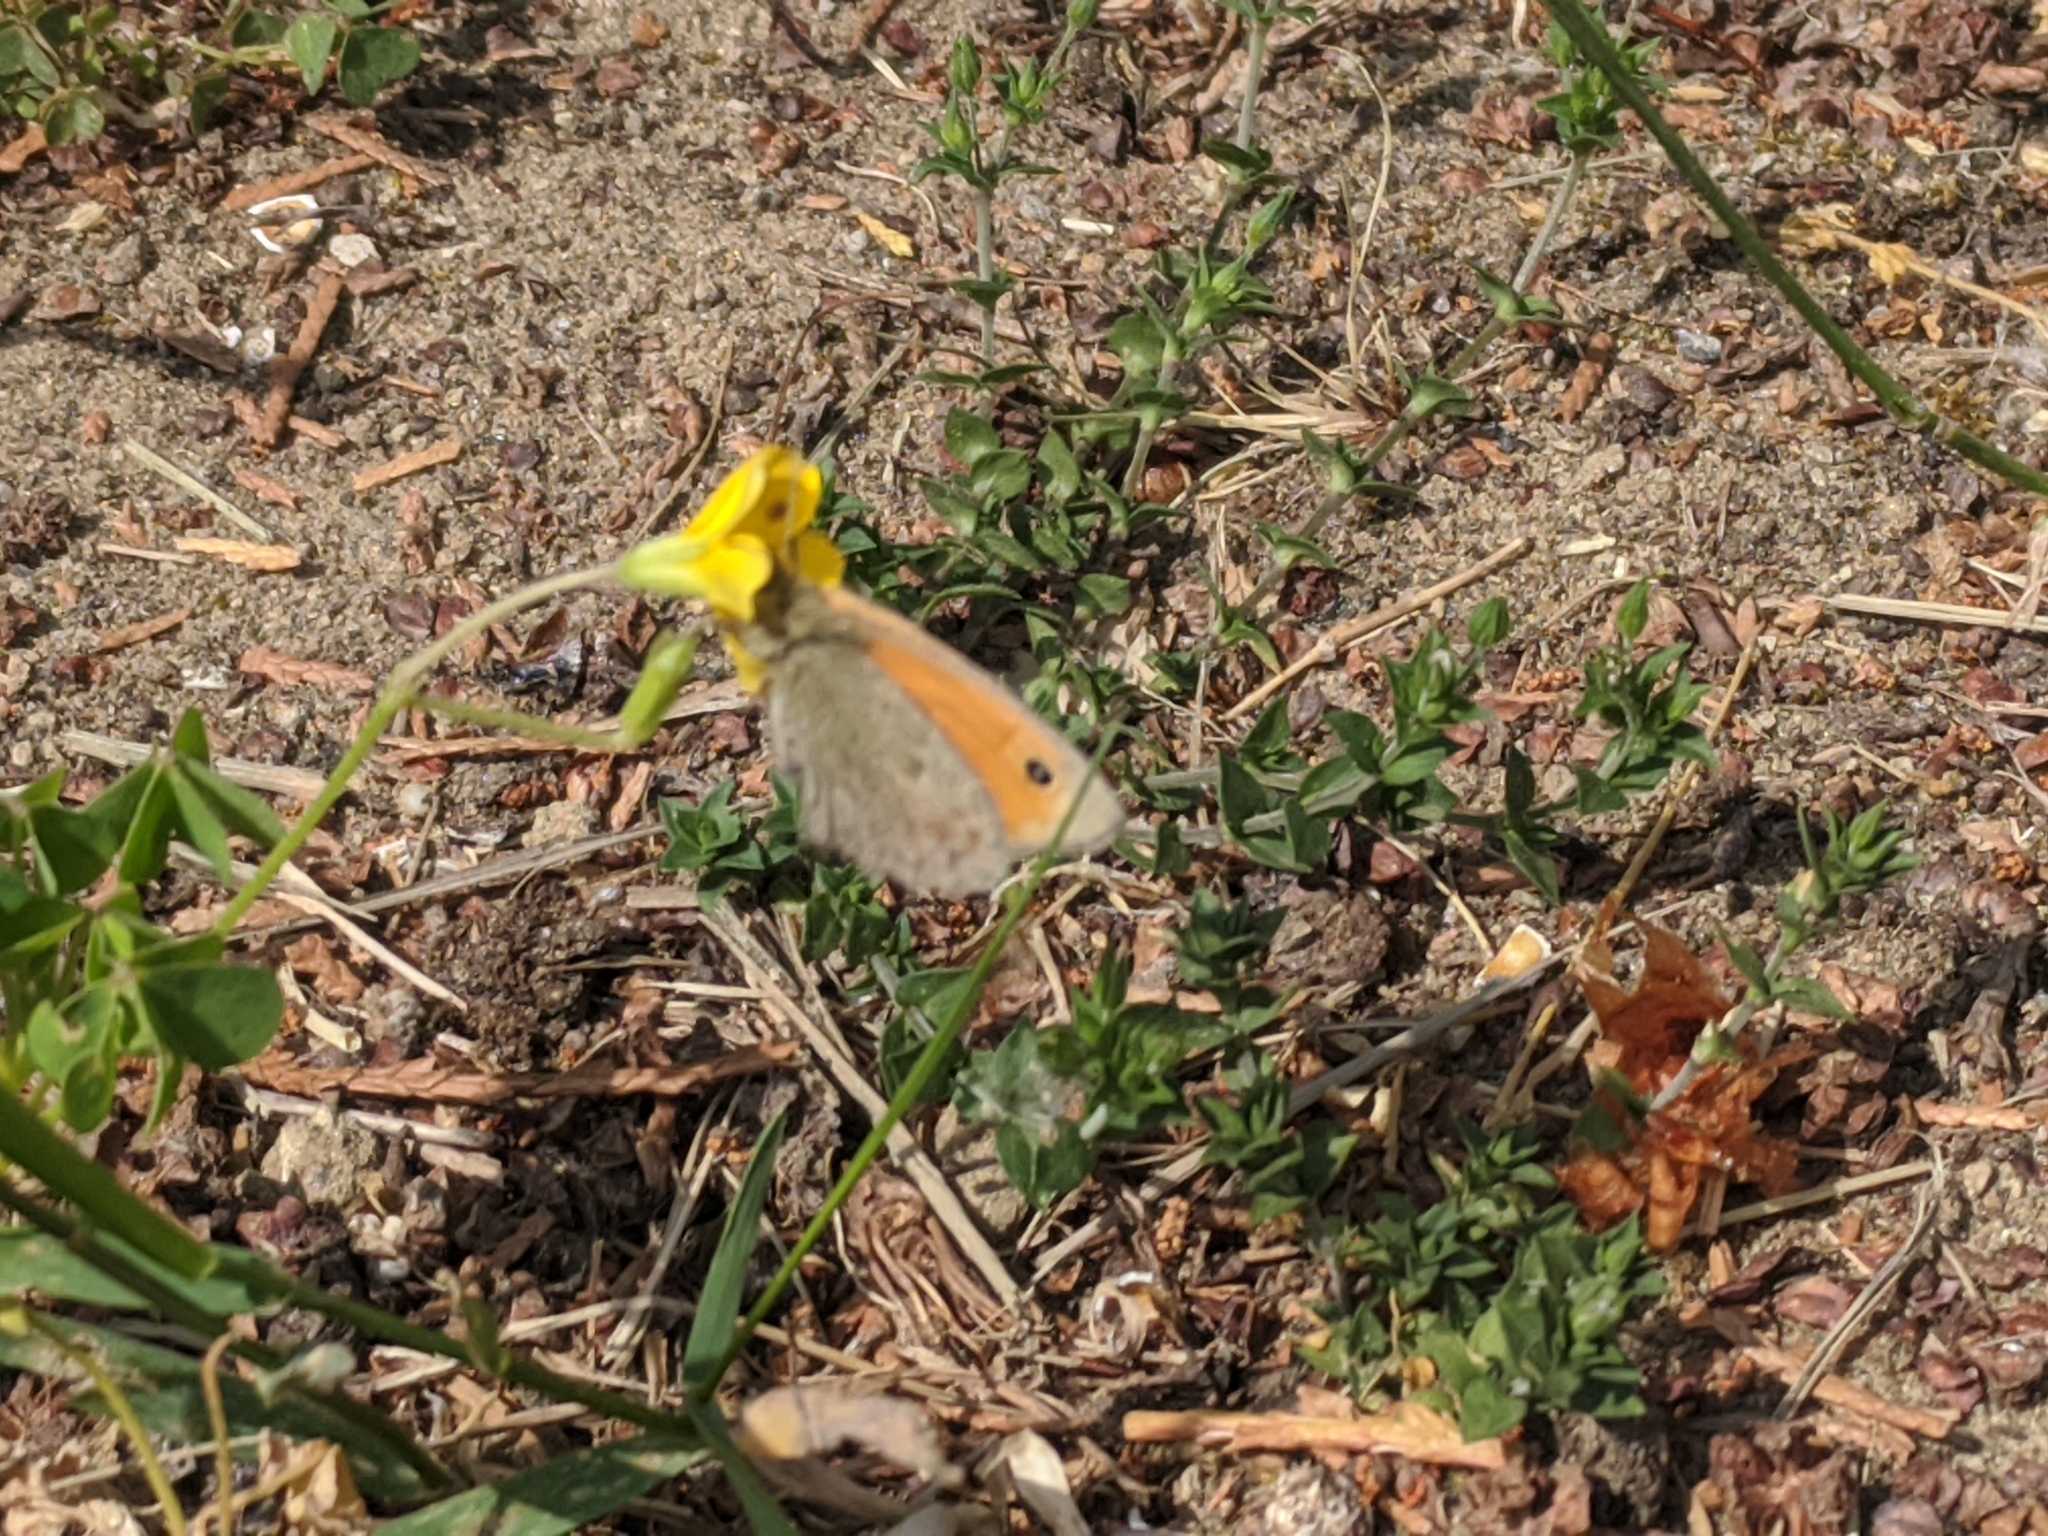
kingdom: Animalia
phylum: Arthropoda
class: Insecta
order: Lepidoptera
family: Nymphalidae
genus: Coenonympha
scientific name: Coenonympha pamphilus
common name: Small heath
